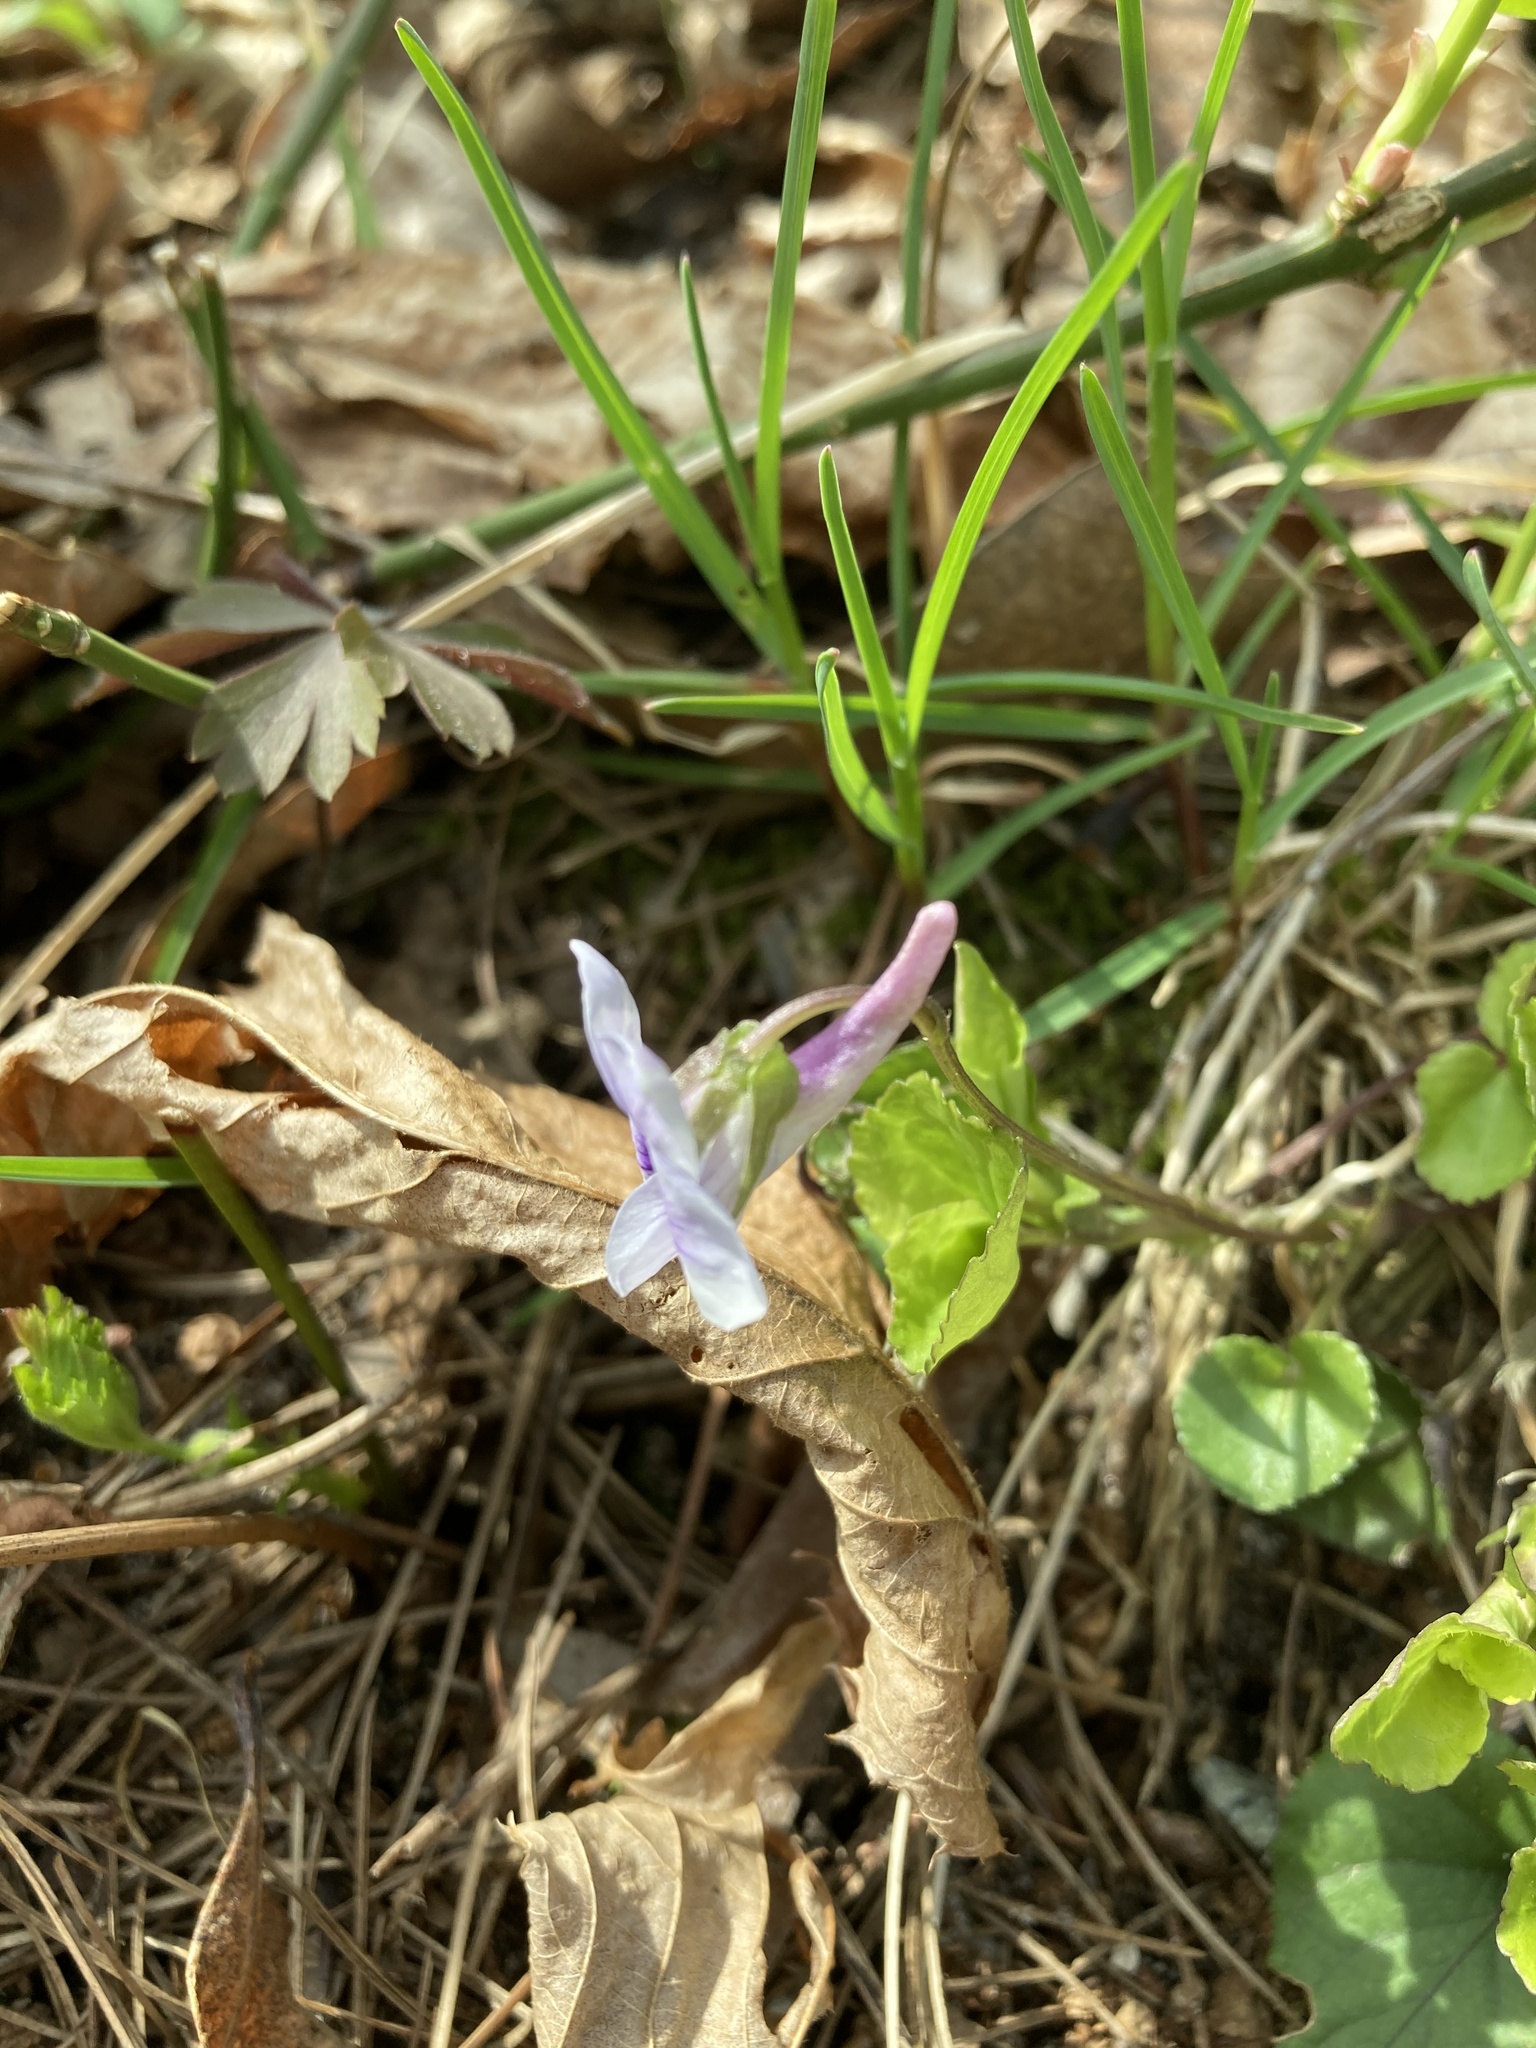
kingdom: Plantae
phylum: Tracheophyta
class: Magnoliopsida
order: Malpighiales
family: Violaceae
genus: Viola
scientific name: Viola rostrata
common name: Long-spur violet
